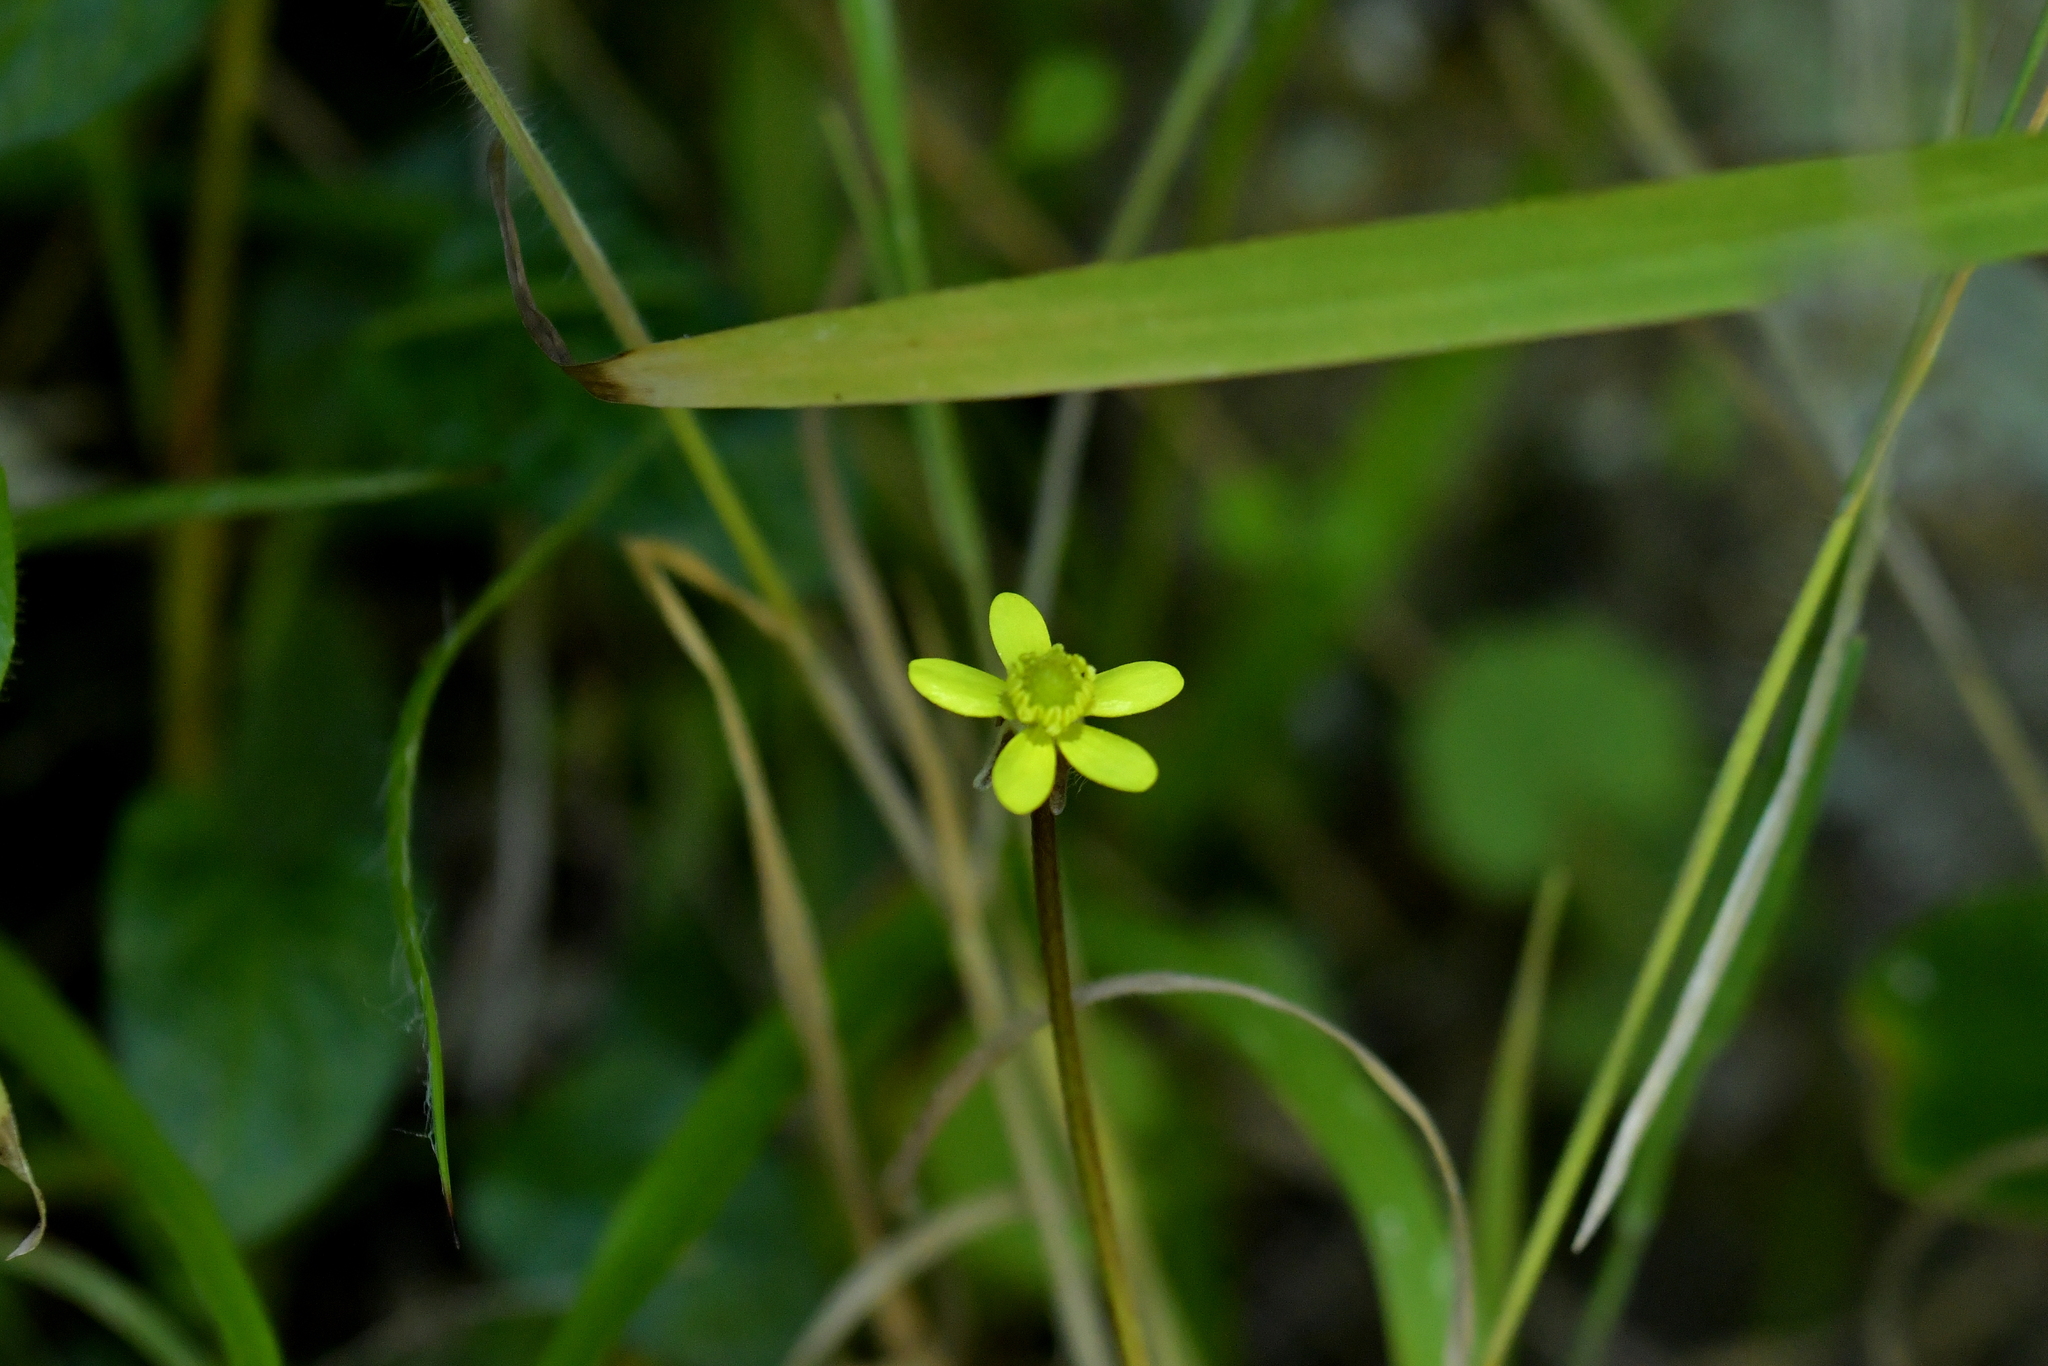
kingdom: Plantae
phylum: Tracheophyta
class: Magnoliopsida
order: Ranunculales
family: Ranunculaceae
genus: Ranunculus
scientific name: Ranunculus reflexus
